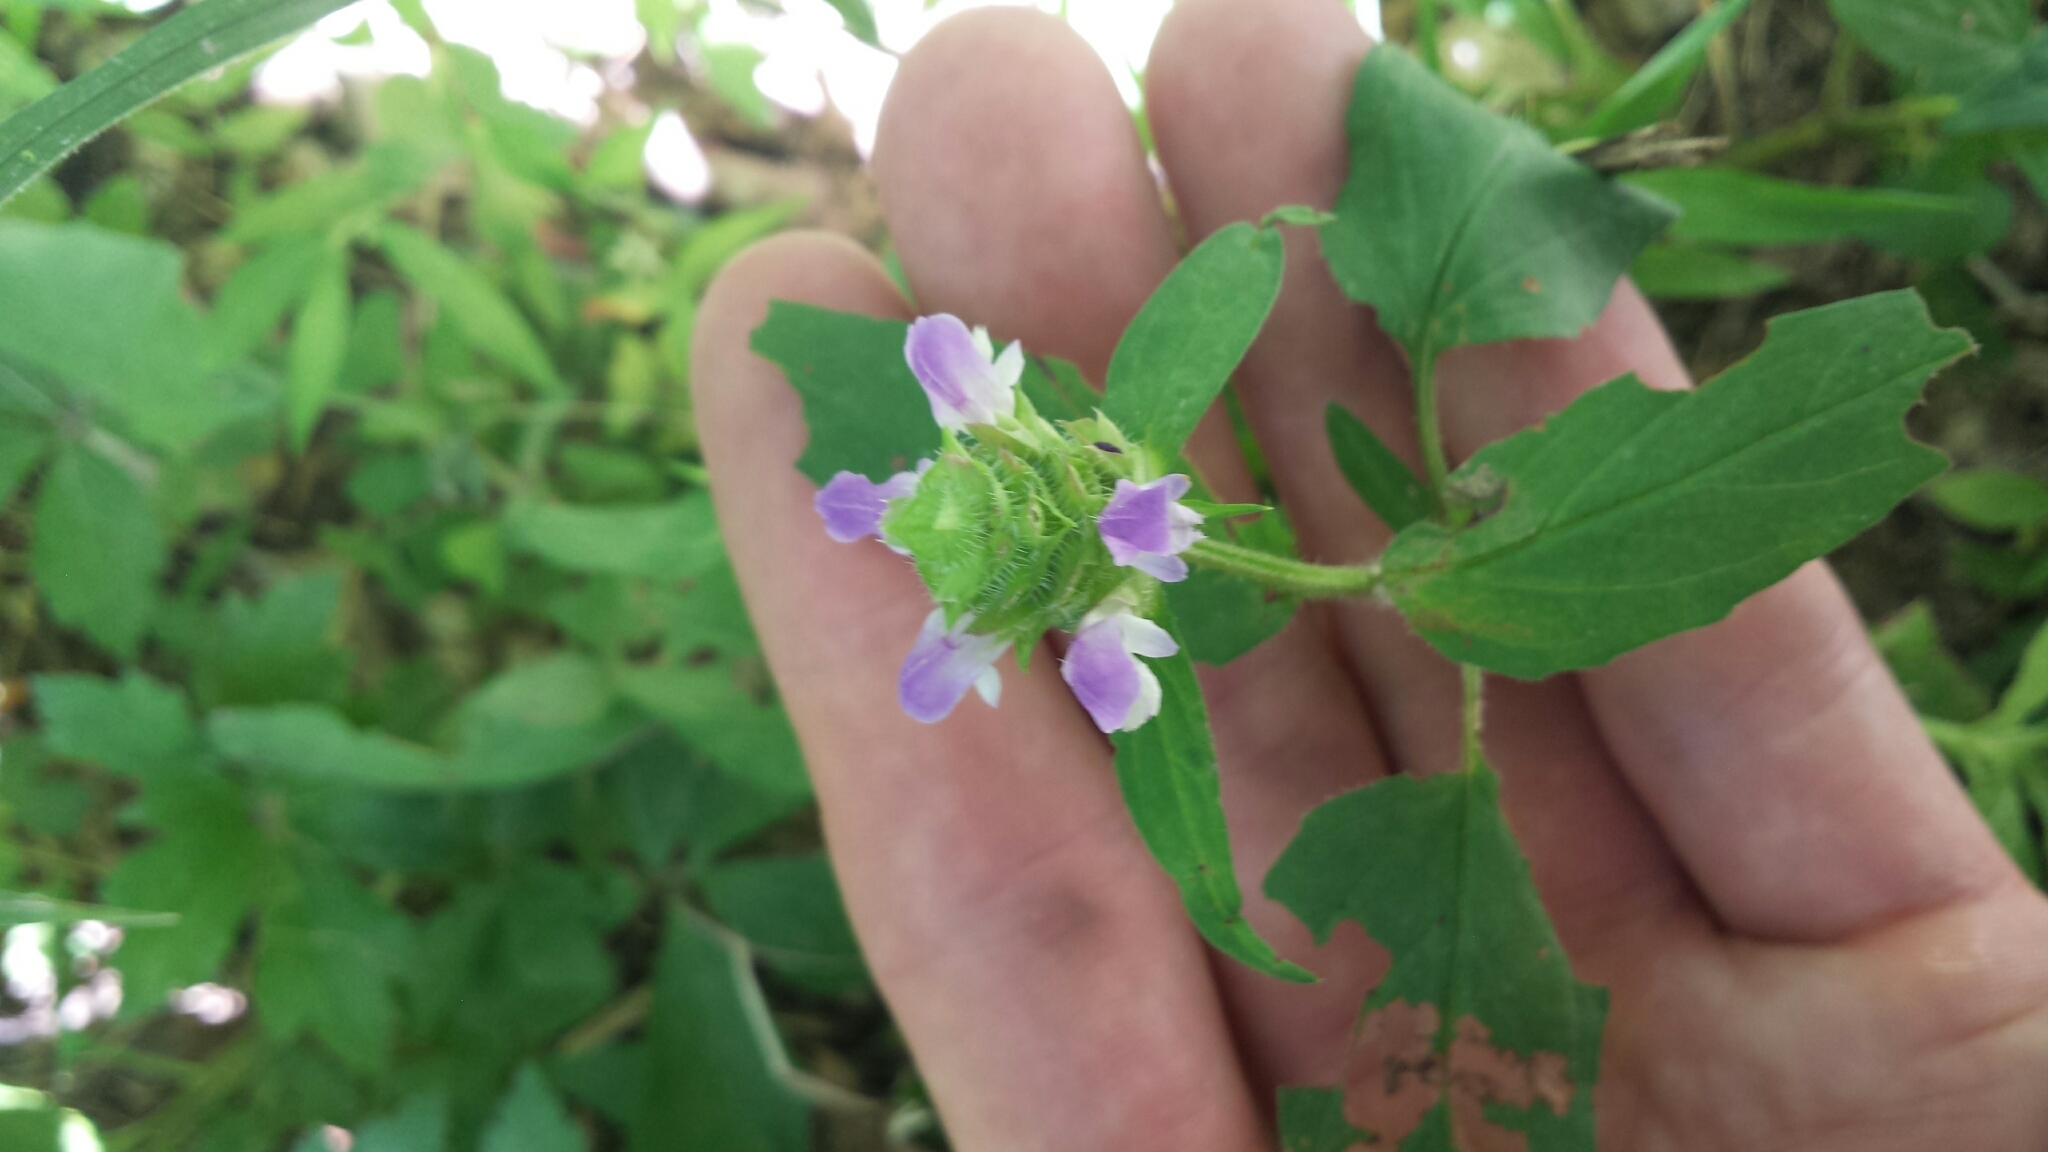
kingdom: Plantae
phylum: Tracheophyta
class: Magnoliopsida
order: Lamiales
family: Lamiaceae
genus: Prunella
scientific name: Prunella vulgaris
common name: Heal-all
